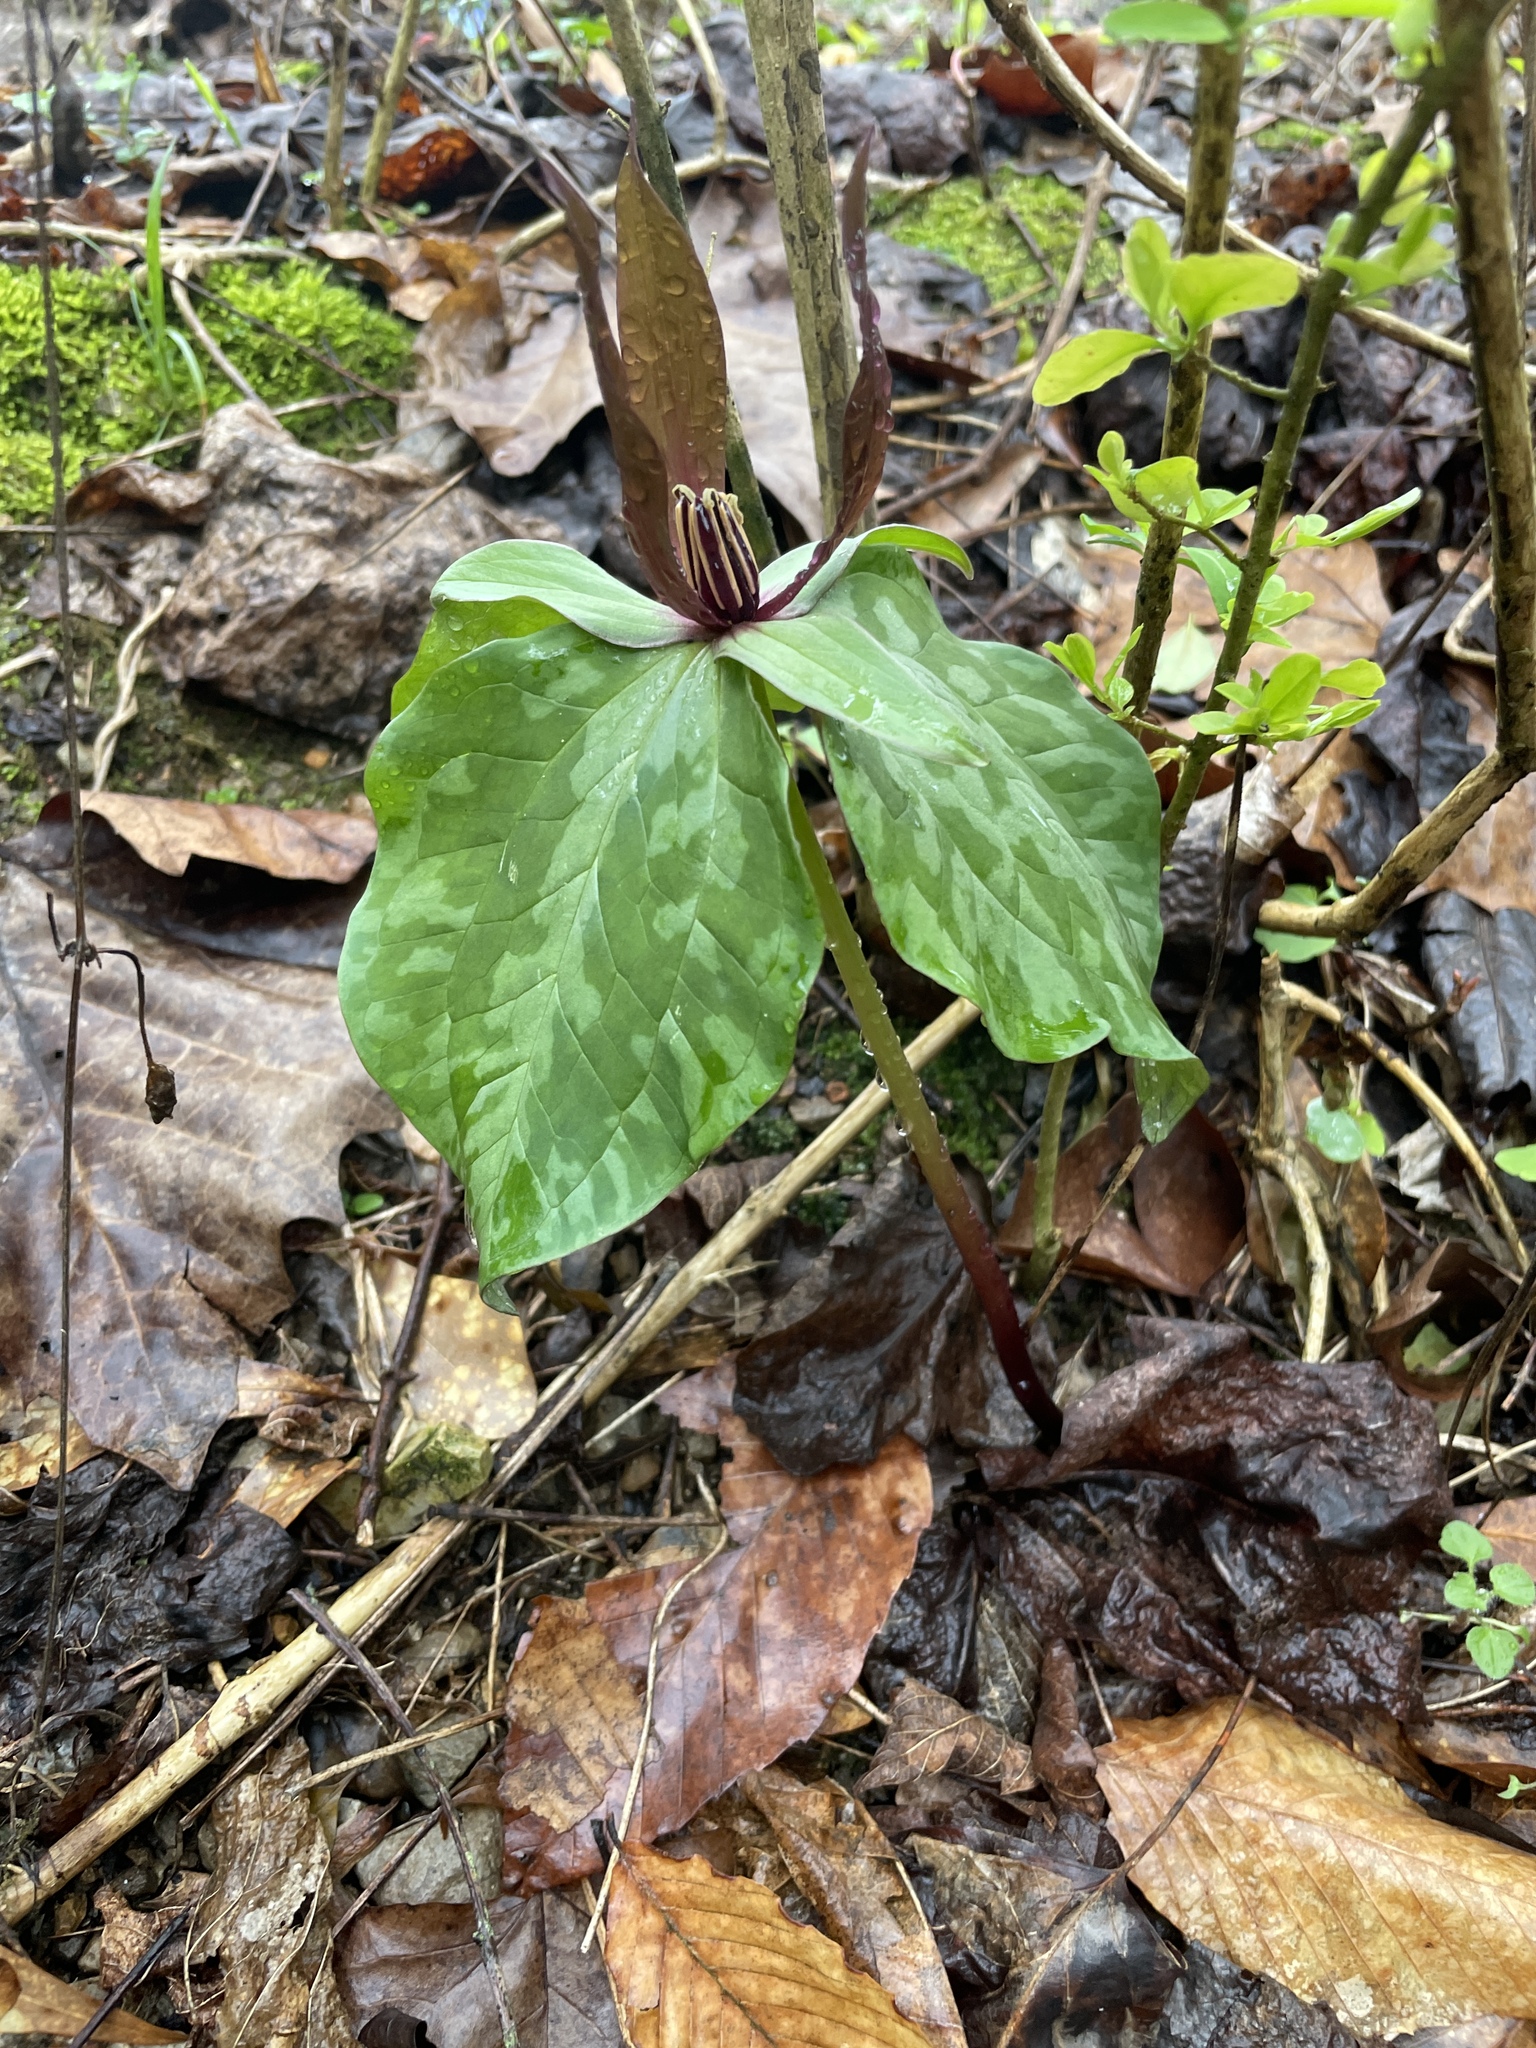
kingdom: Plantae
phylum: Tracheophyta
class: Liliopsida
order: Liliales
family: Melanthiaceae
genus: Trillium
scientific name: Trillium cuneatum
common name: Cuneate trillium
